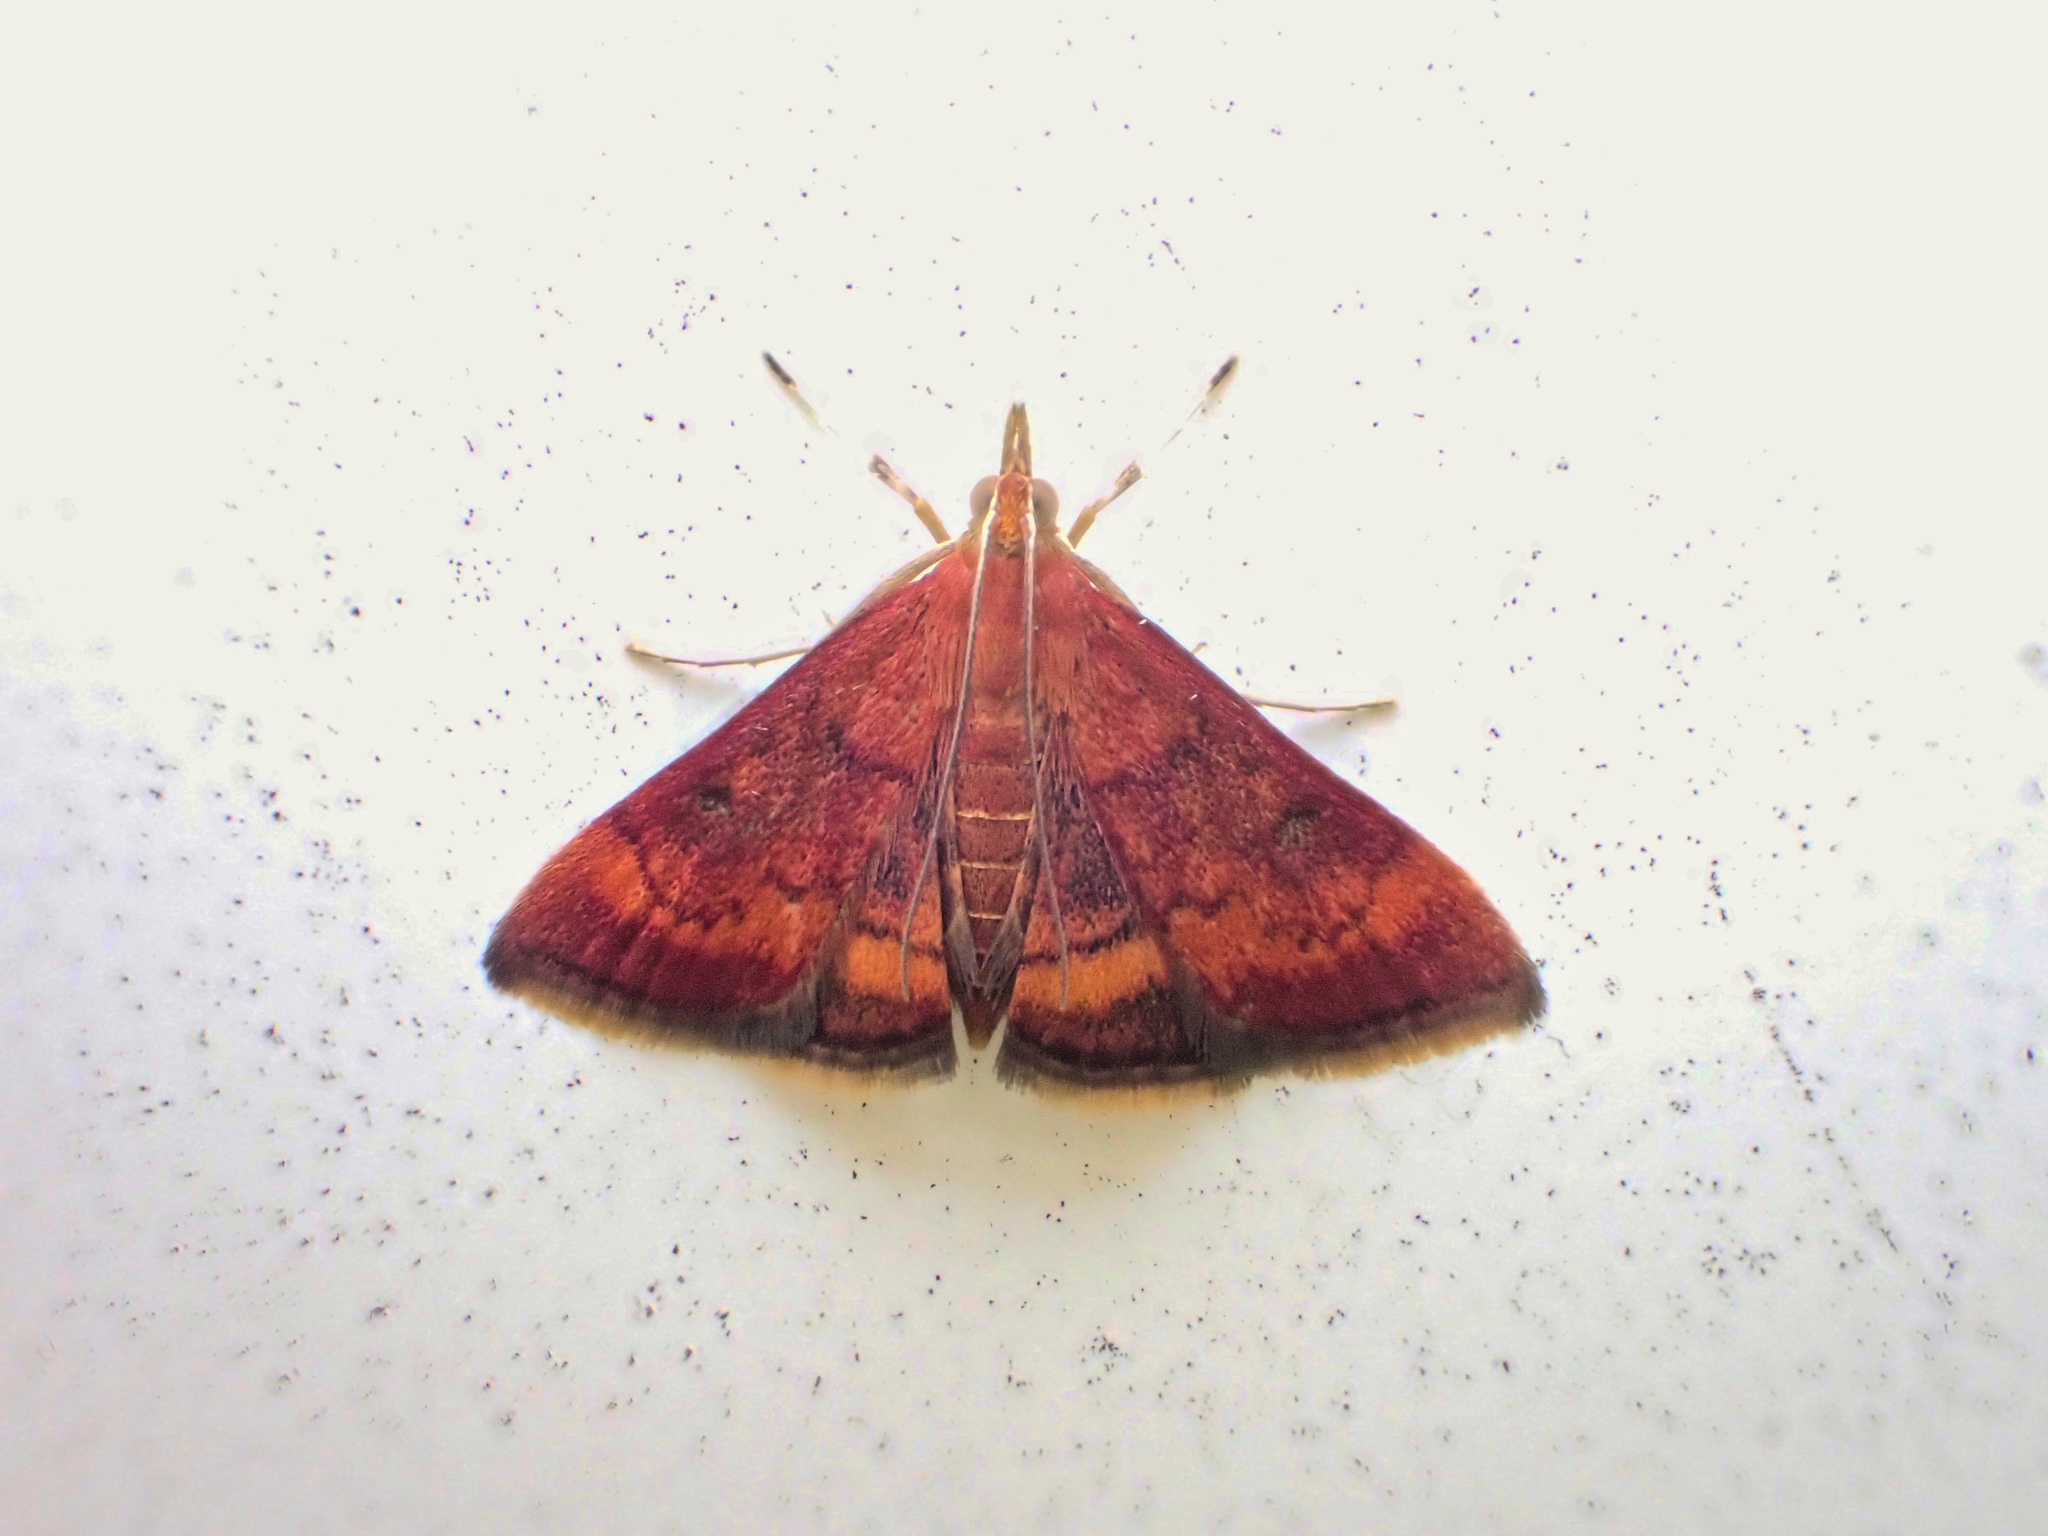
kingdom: Animalia
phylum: Arthropoda
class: Insecta
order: Lepidoptera
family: Crambidae
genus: Pyrausta
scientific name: Pyrausta rubricalis
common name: Variable reddish pyrausta
